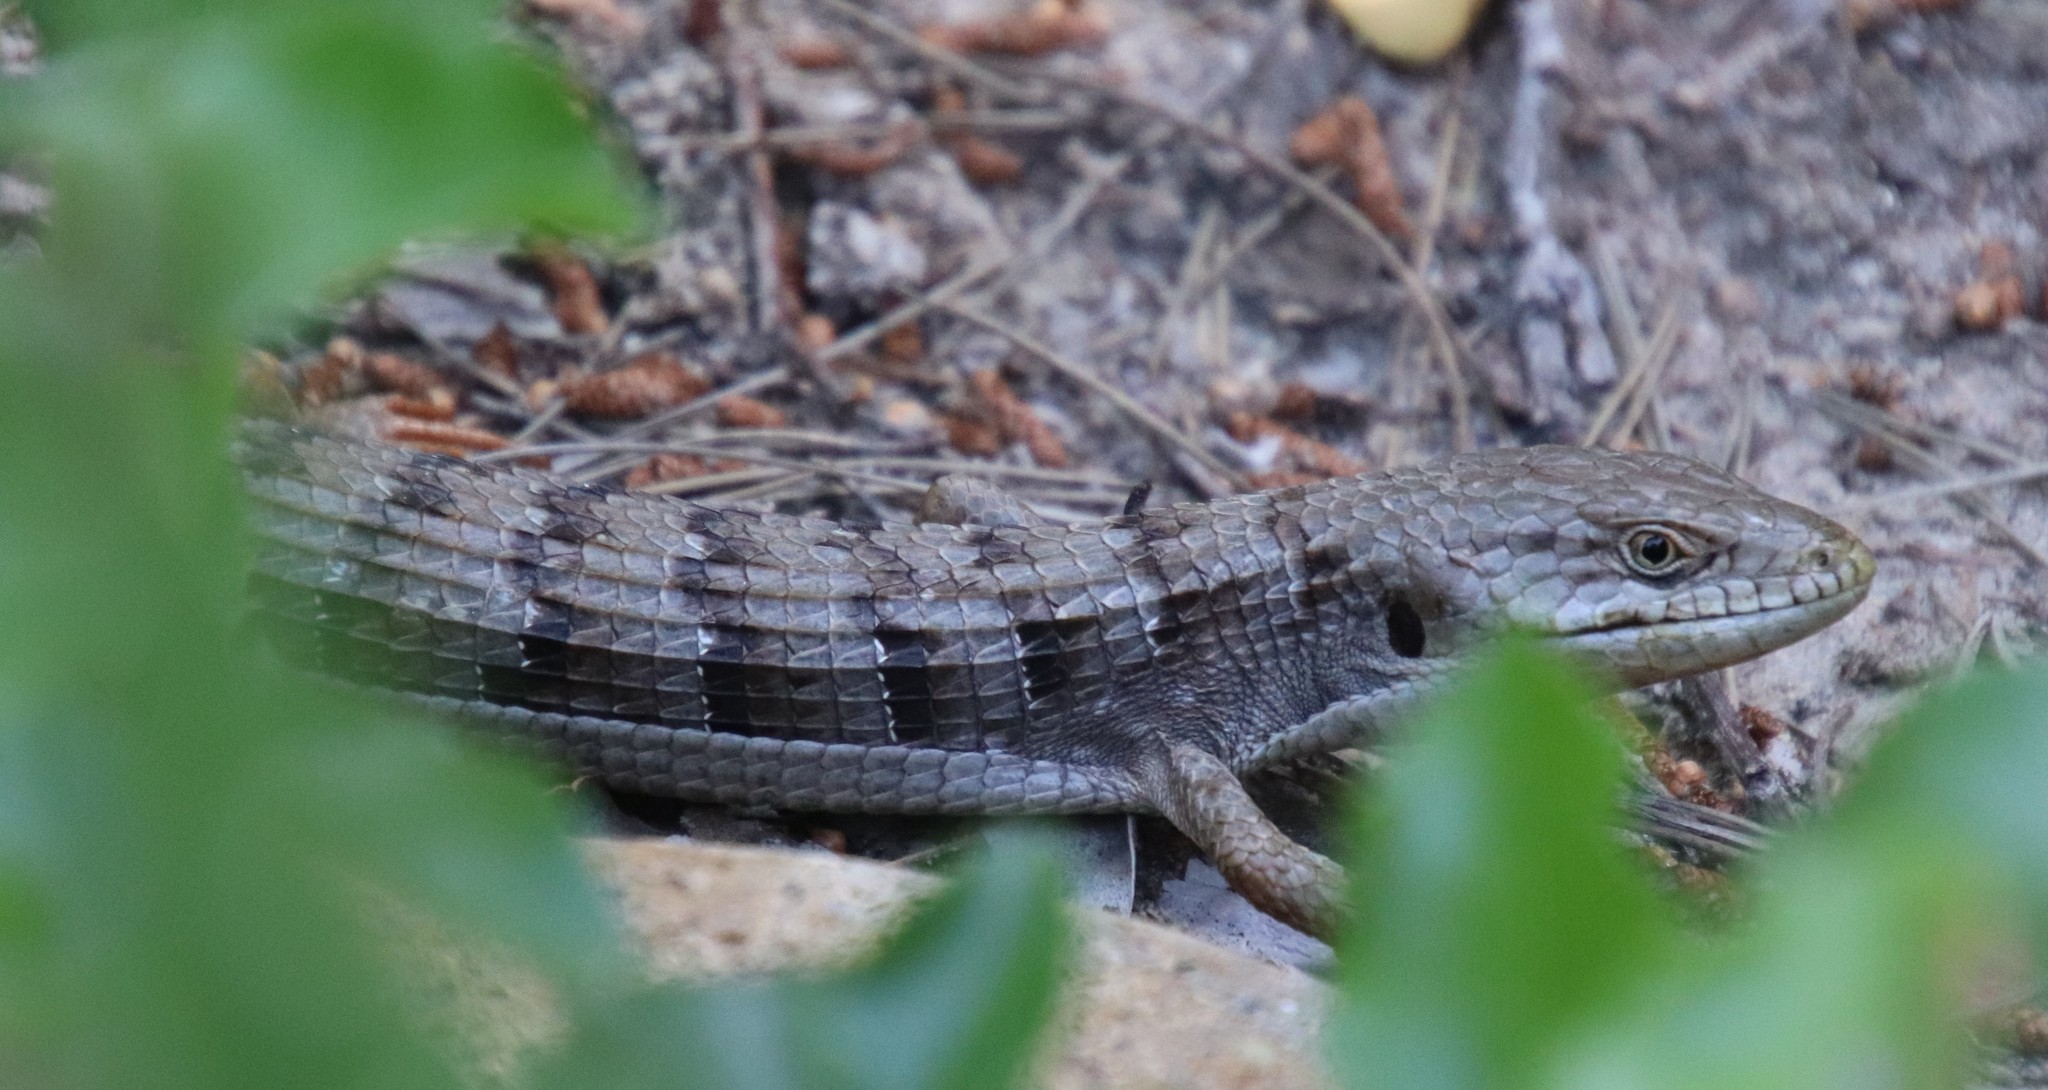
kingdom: Animalia
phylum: Chordata
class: Squamata
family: Anguidae
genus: Elgaria
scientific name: Elgaria multicarinata
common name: Southern alligator lizard
